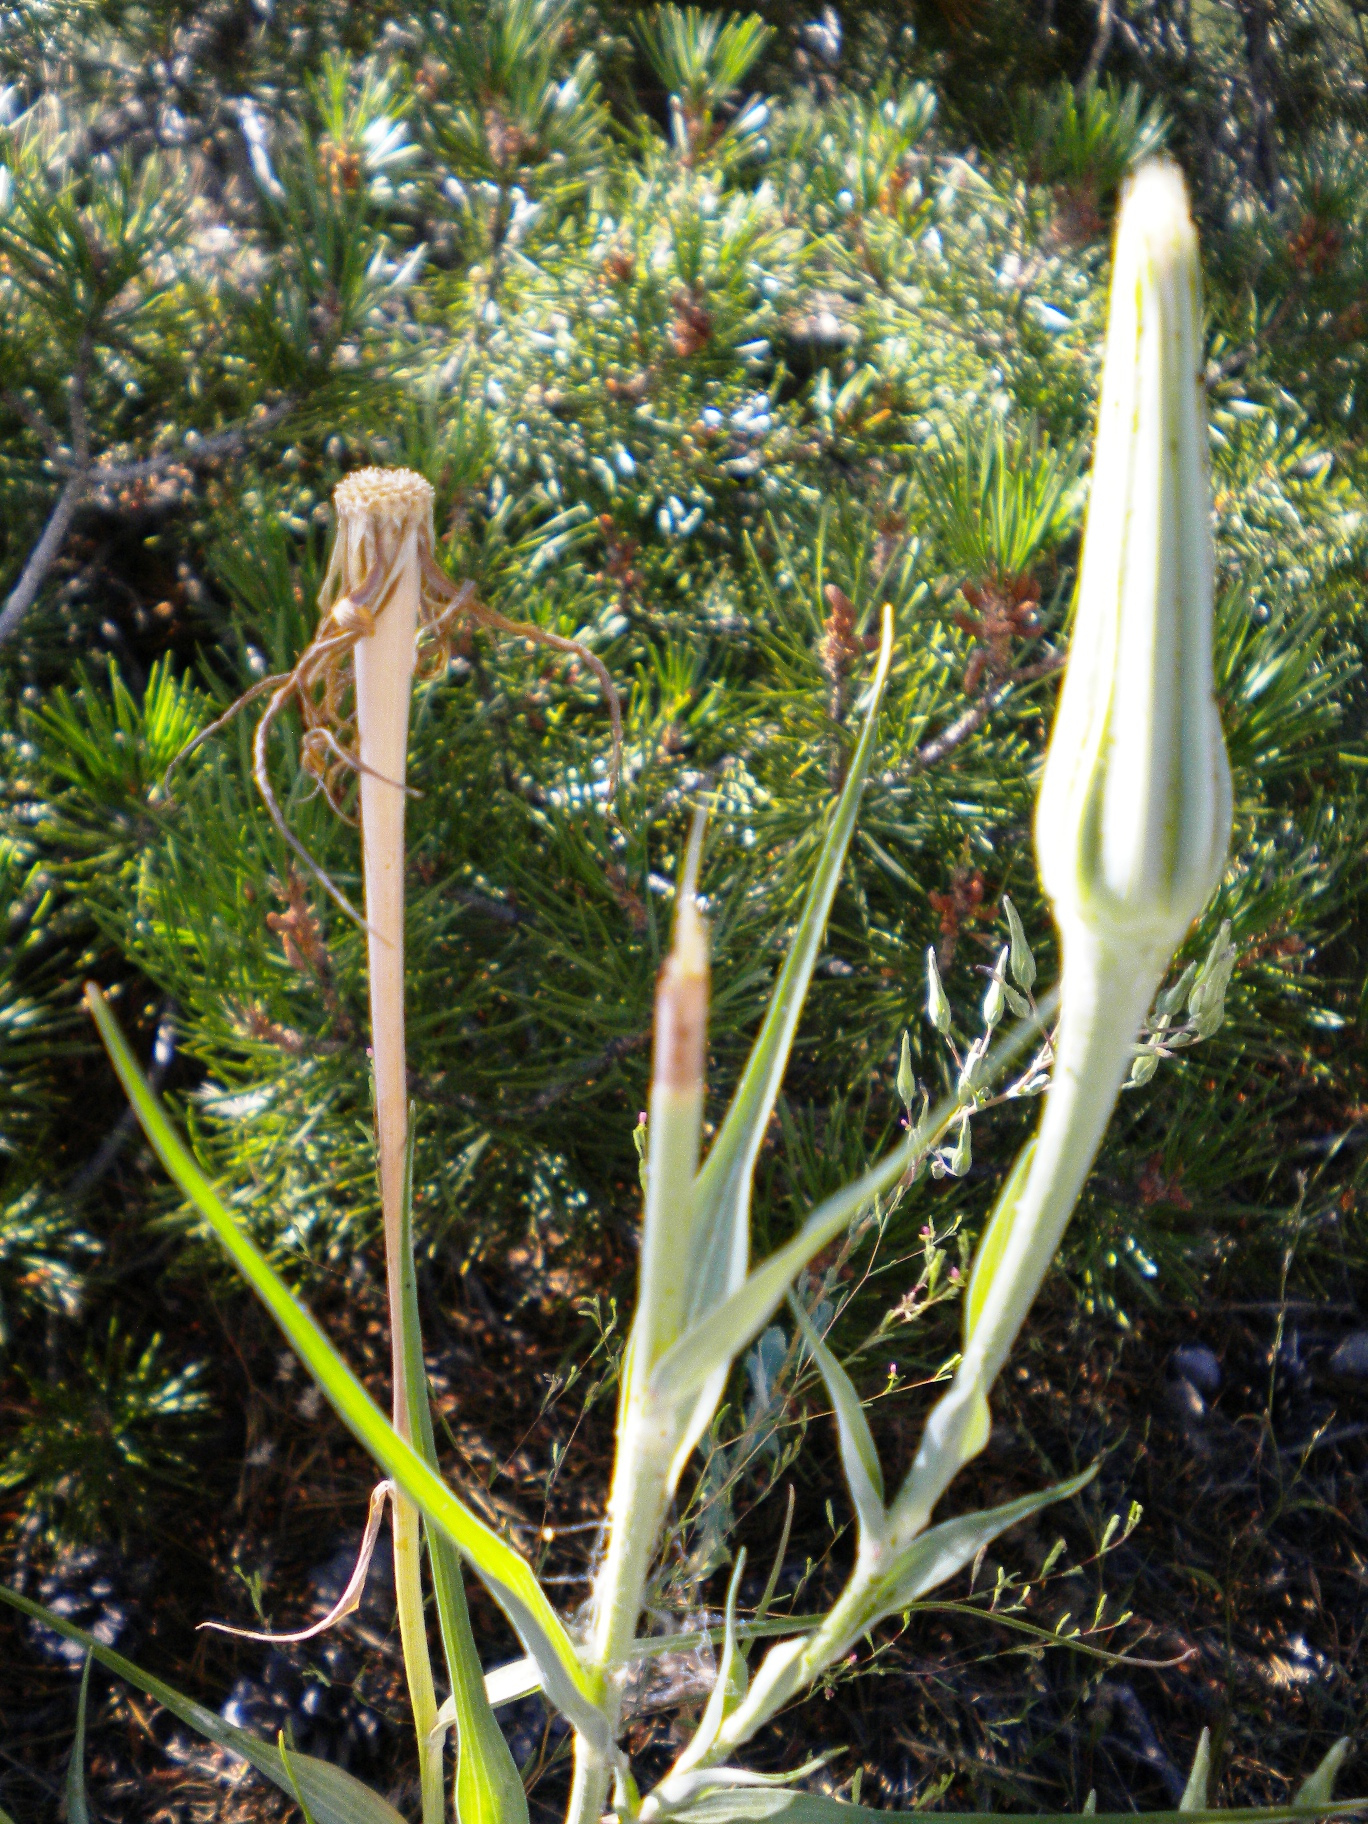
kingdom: Plantae
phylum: Tracheophyta
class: Magnoliopsida
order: Asterales
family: Asteraceae
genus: Tragopogon
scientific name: Tragopogon dubius
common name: Yellow salsify
